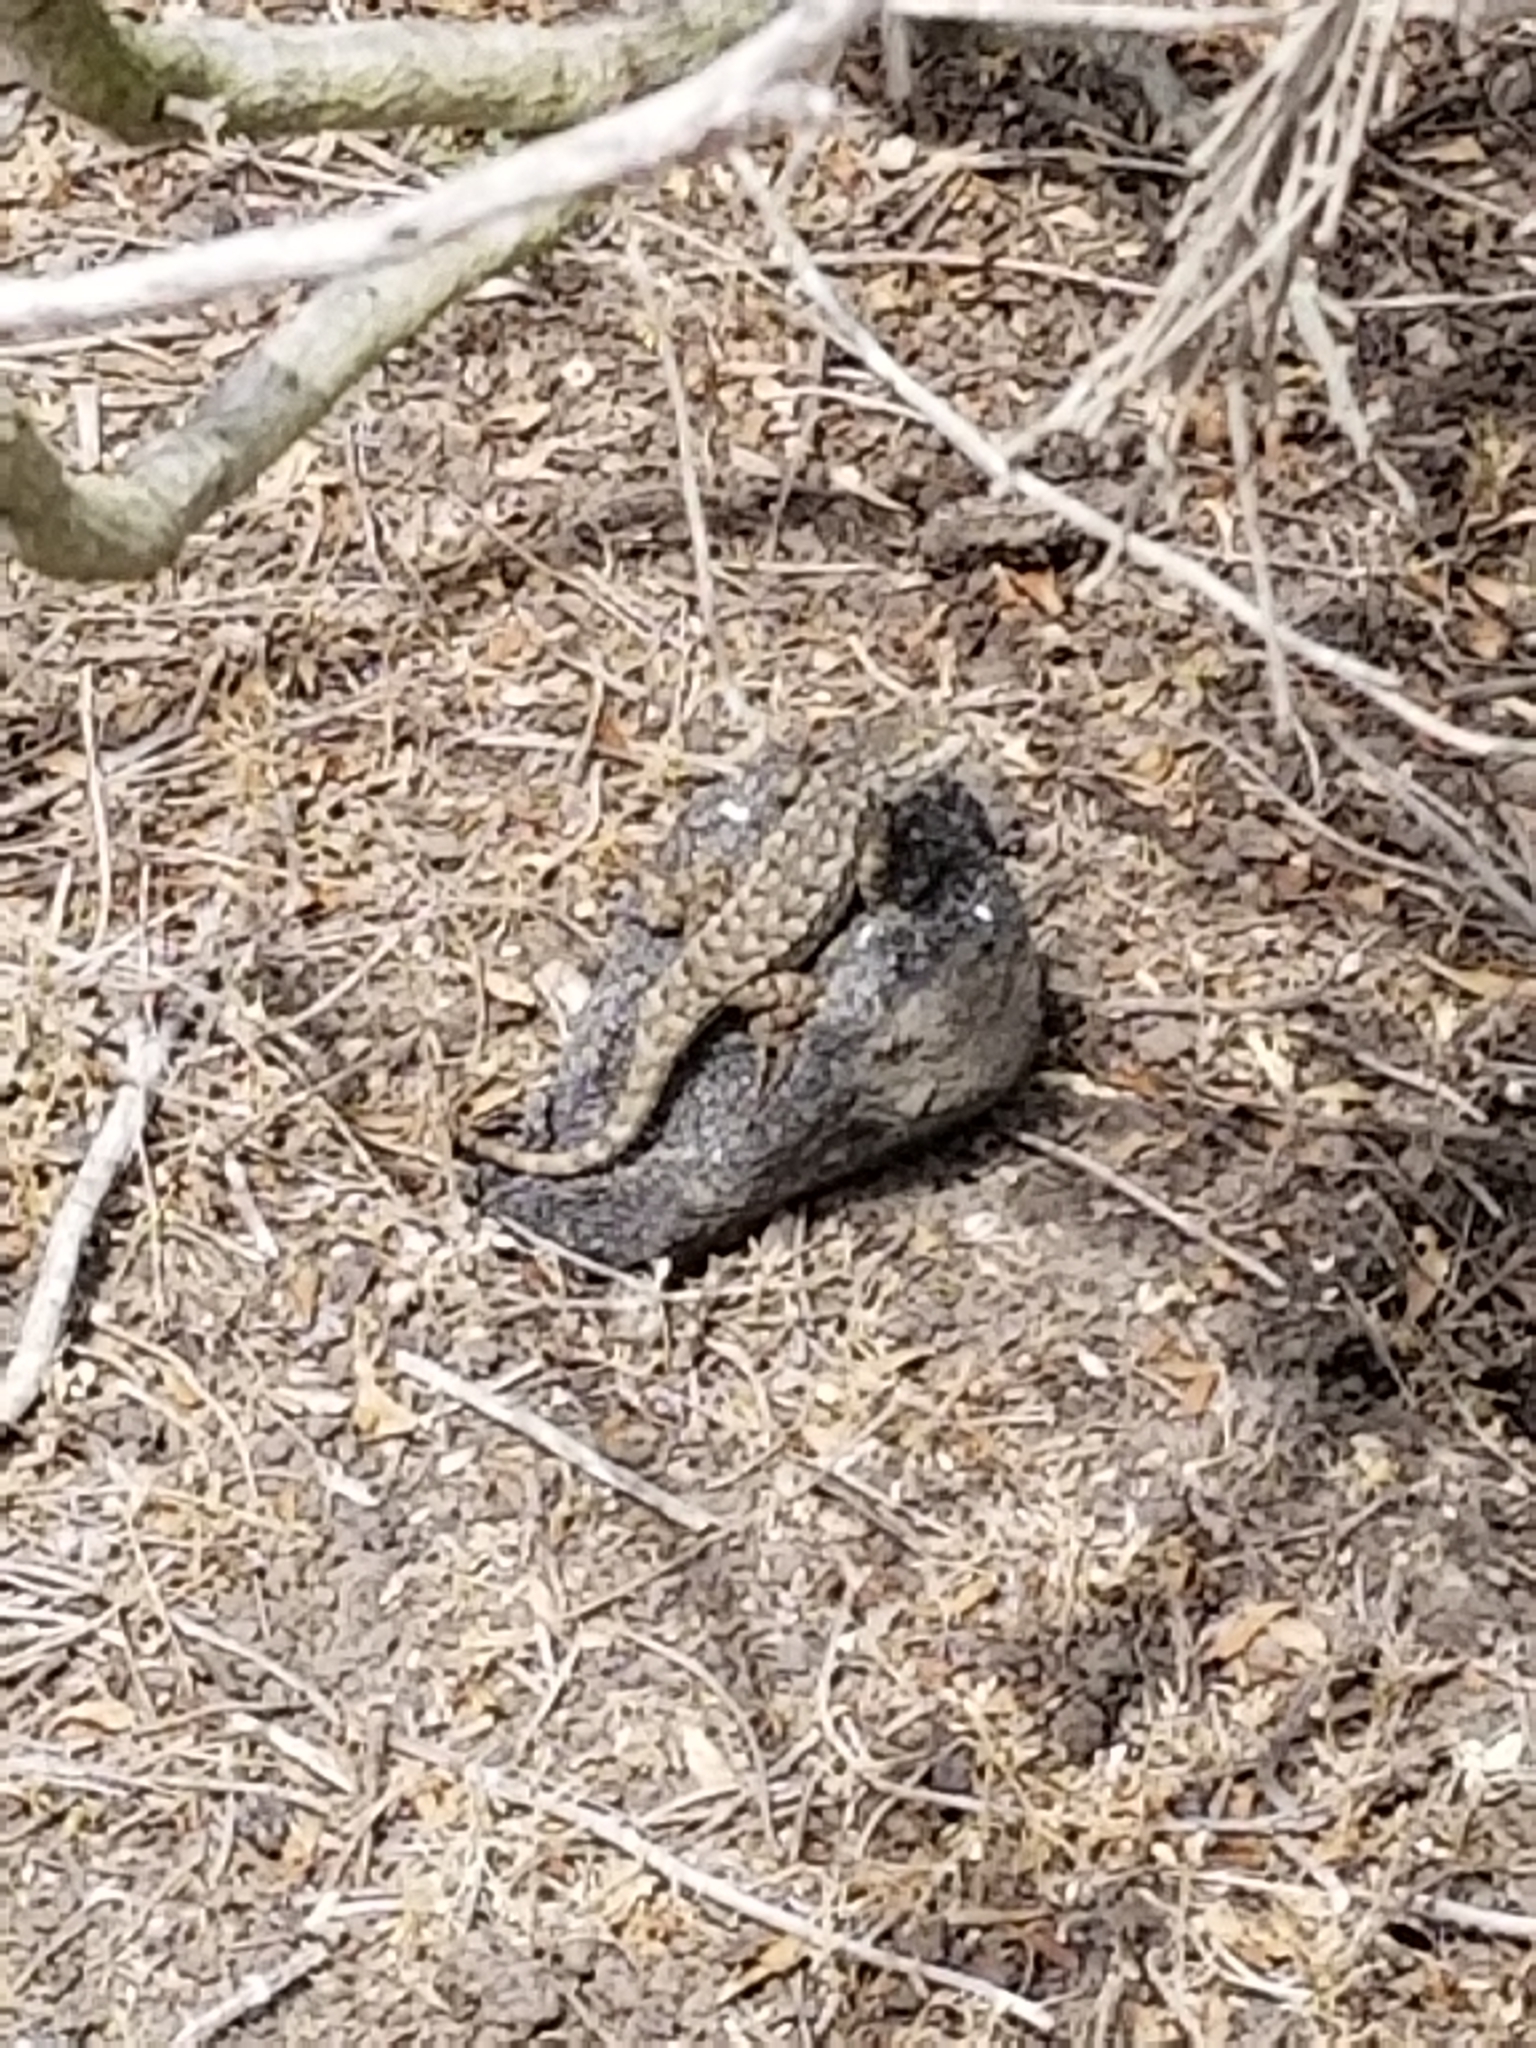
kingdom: Animalia
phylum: Chordata
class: Squamata
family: Phrynosomatidae
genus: Sceloporus
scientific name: Sceloporus occidentalis
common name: Western fence lizard
